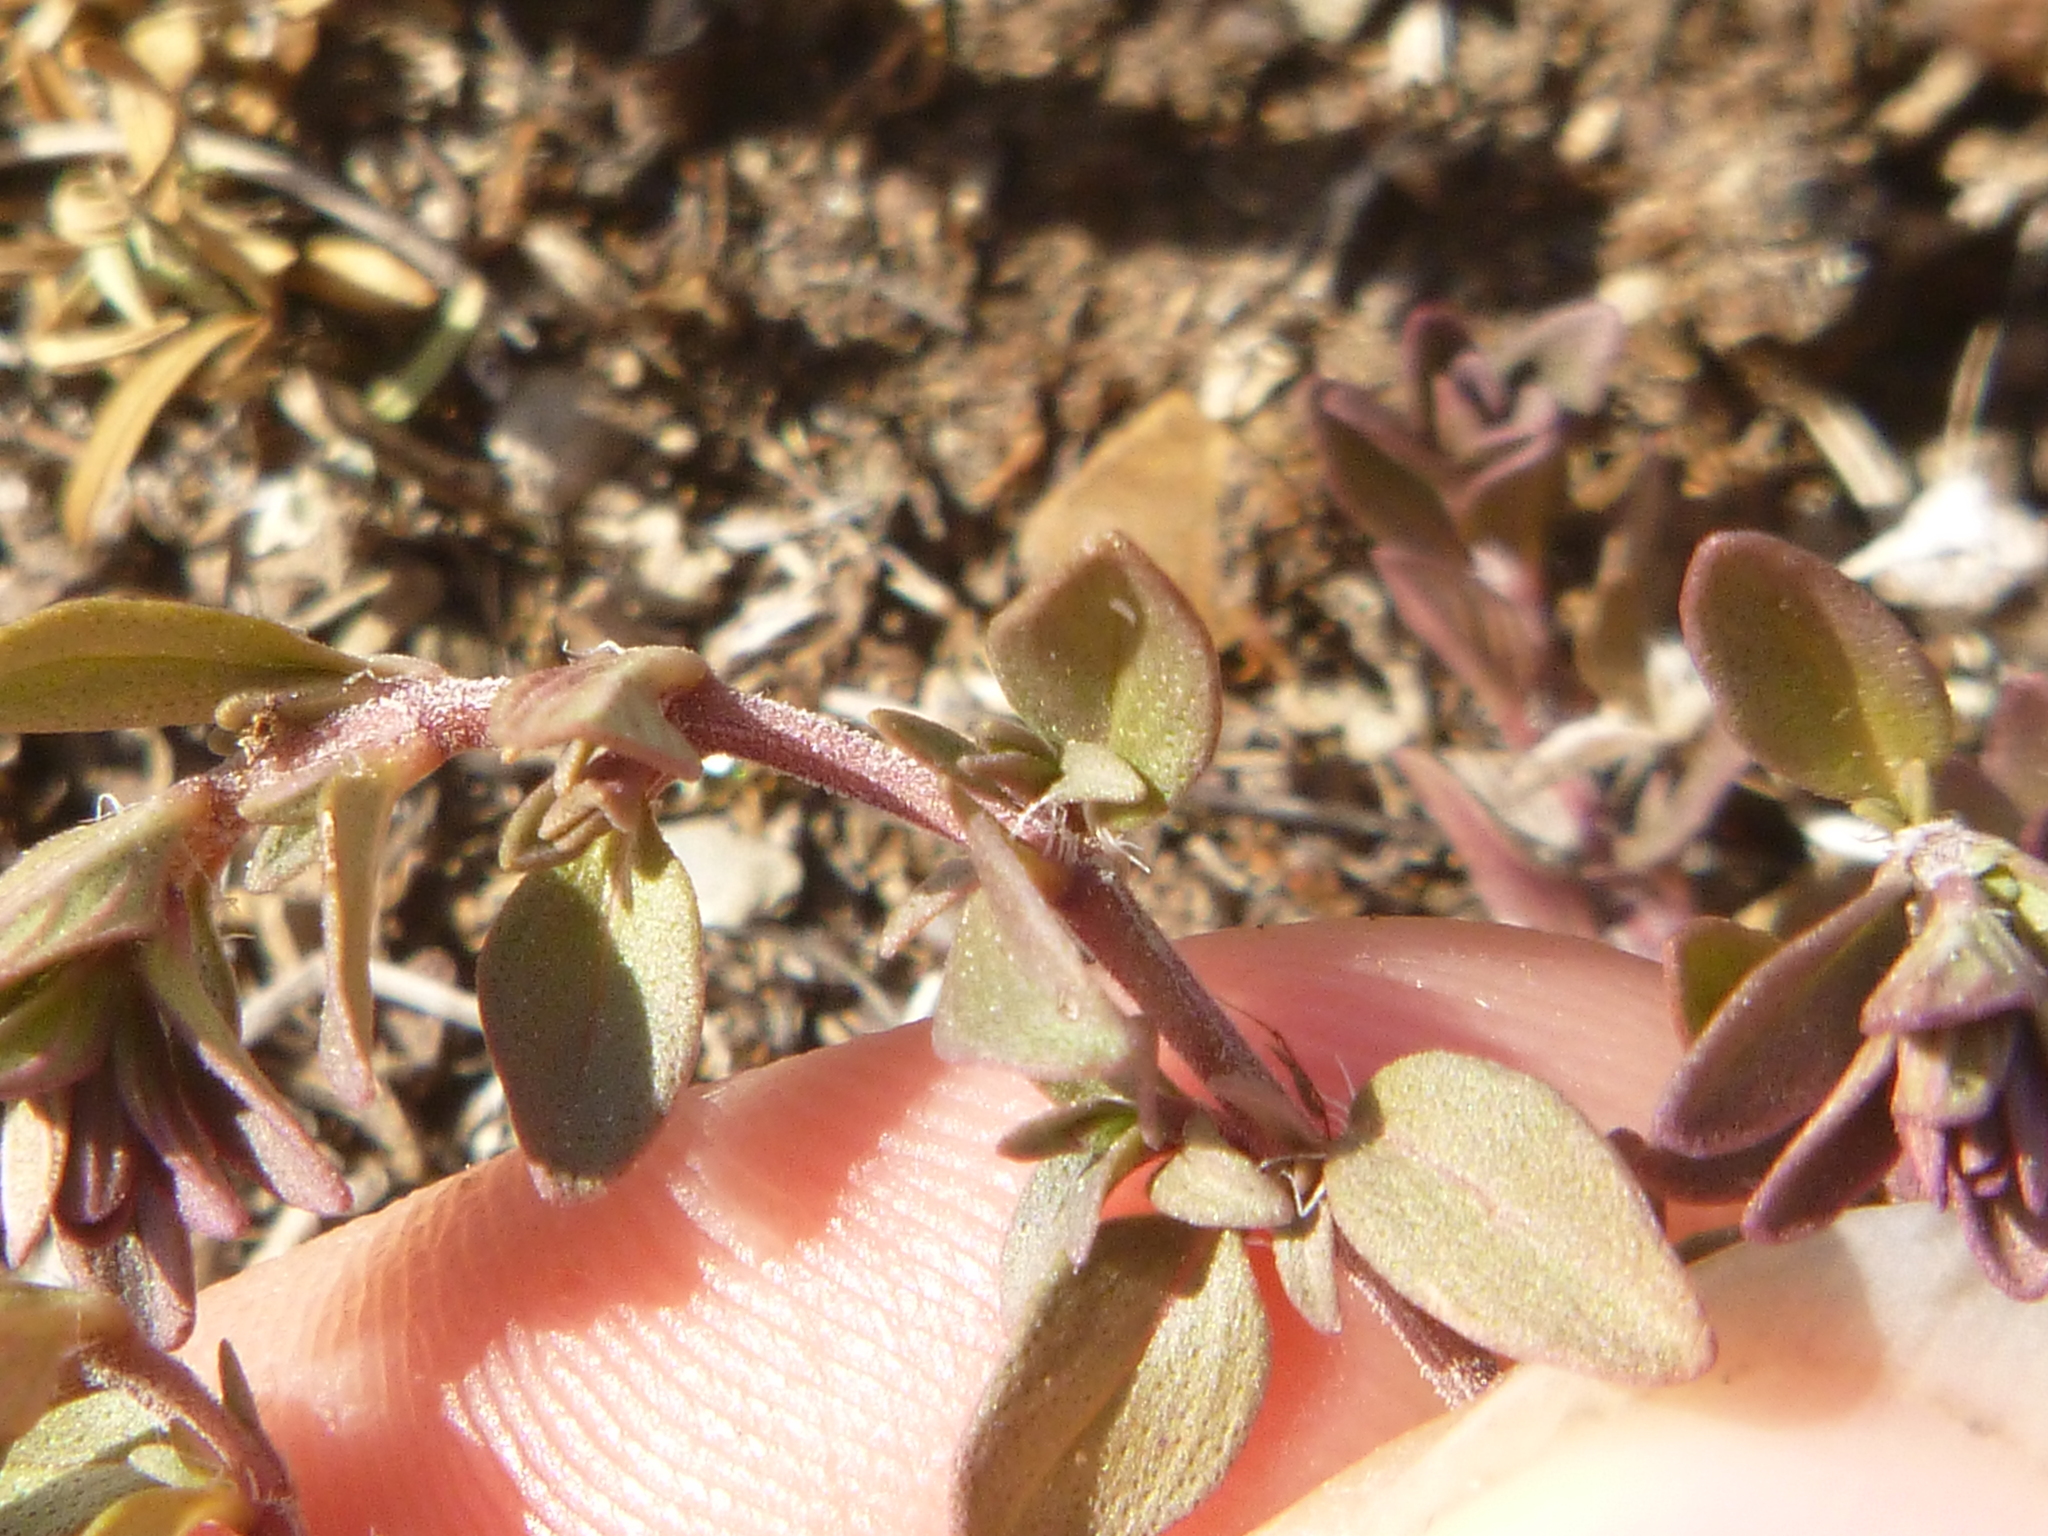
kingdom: Plantae
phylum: Tracheophyta
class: Magnoliopsida
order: Lamiales
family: Lamiaceae
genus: Thymus
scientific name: Thymus praecox
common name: Wild thyme
